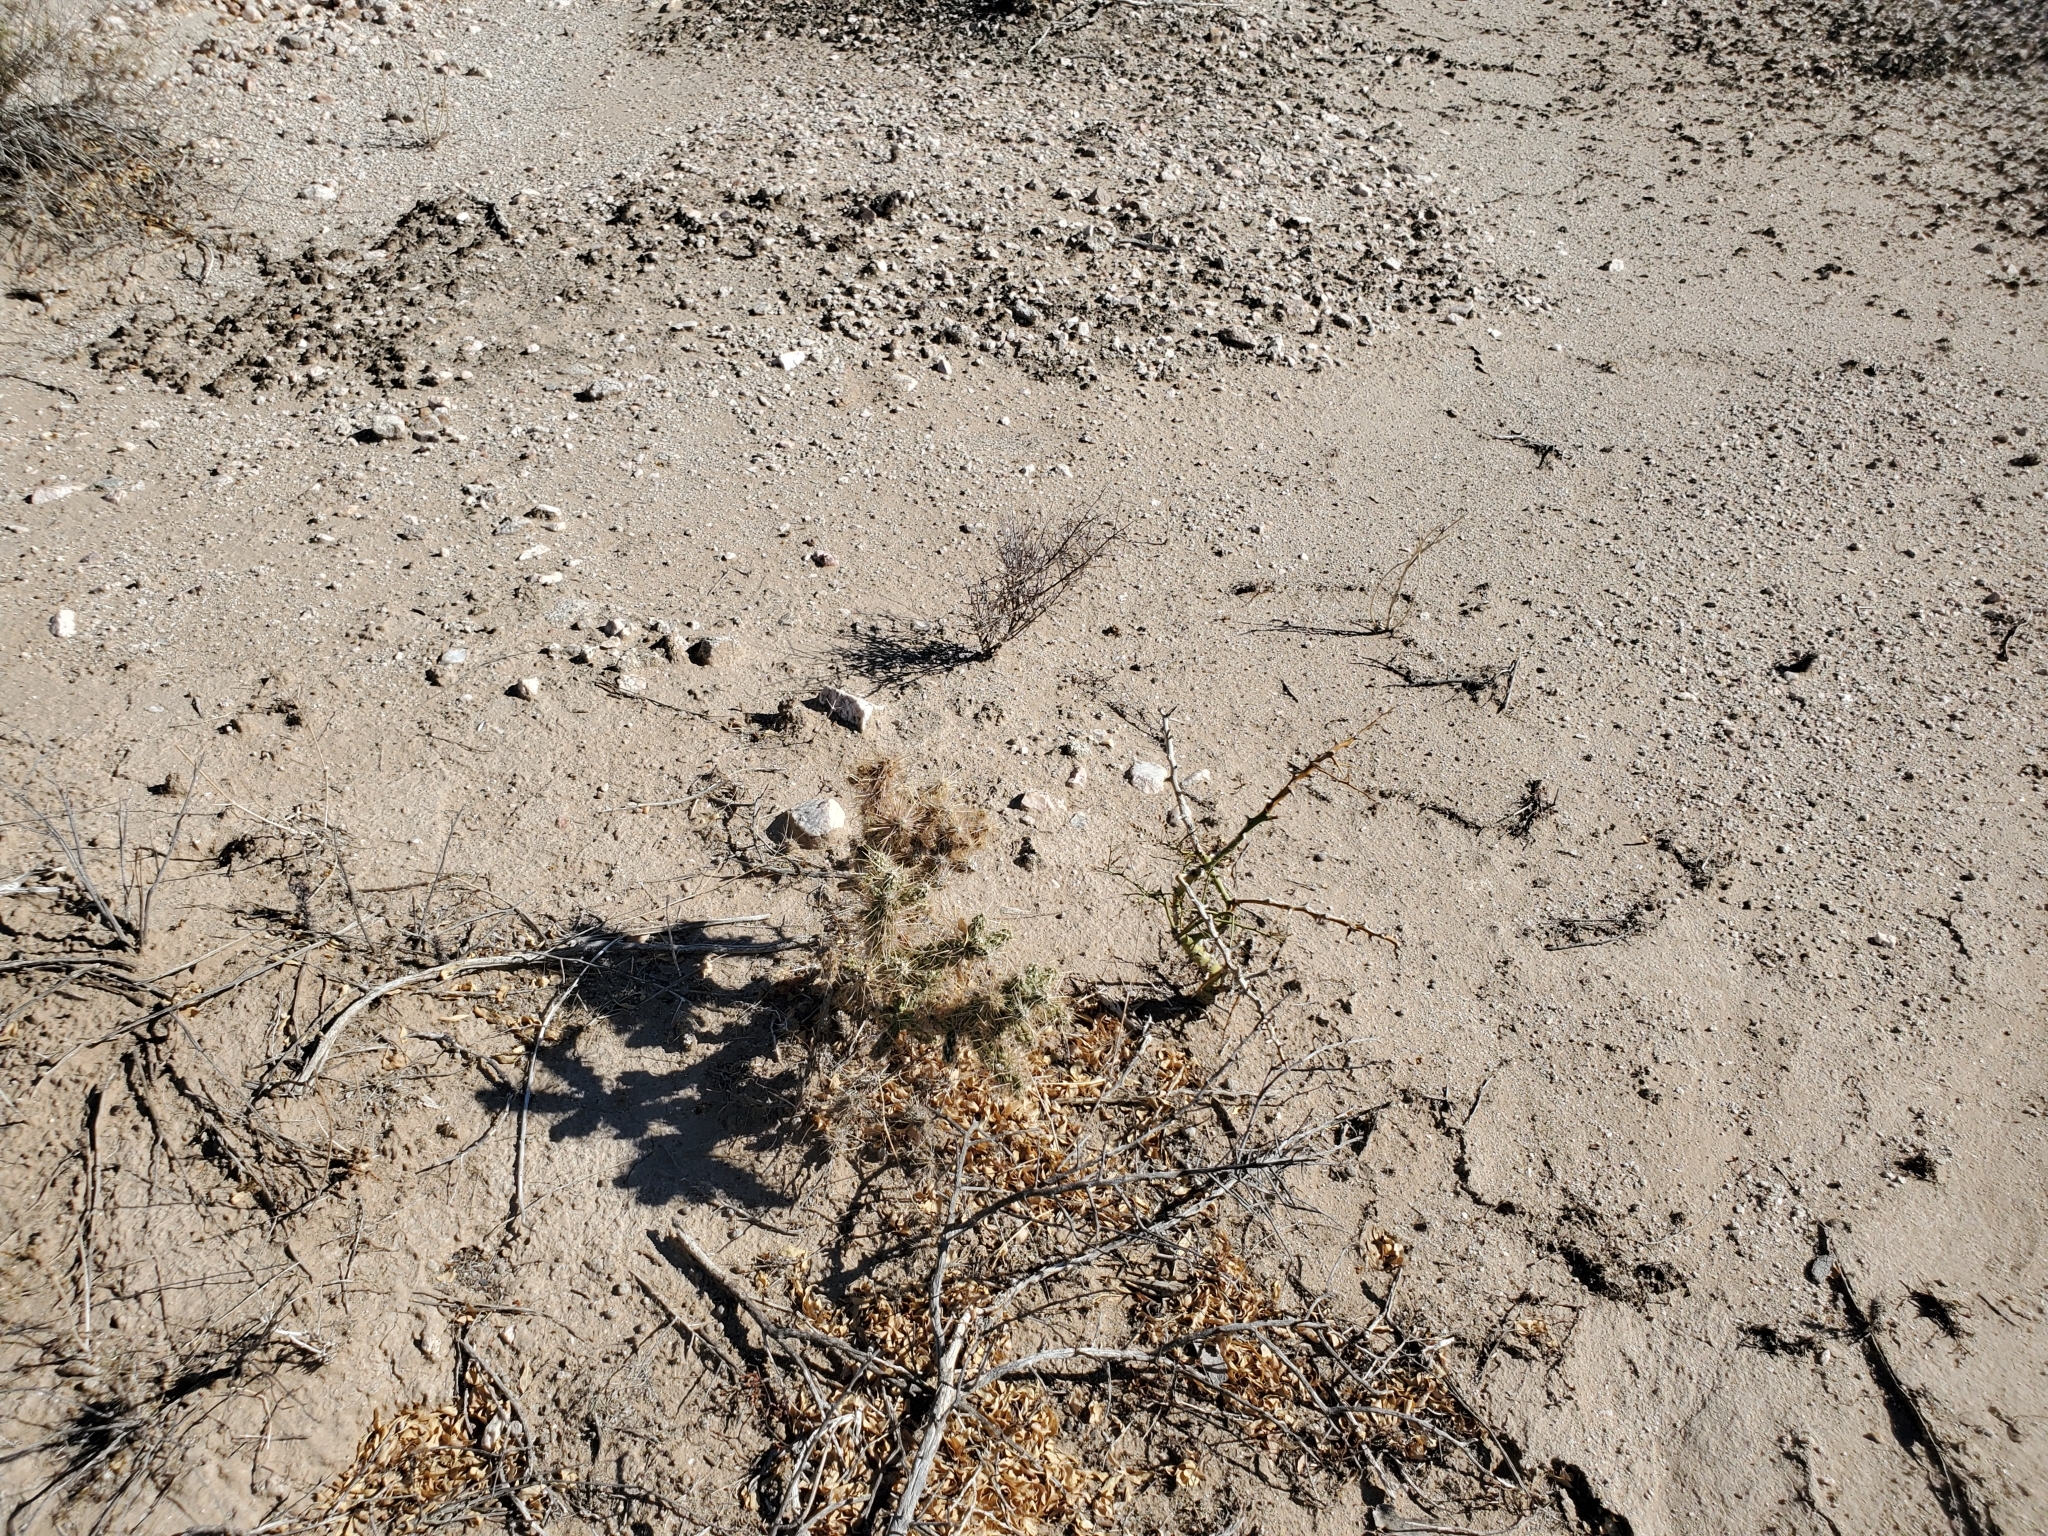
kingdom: Plantae
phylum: Tracheophyta
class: Magnoliopsida
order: Caryophyllales
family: Cactaceae
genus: Cylindropuntia
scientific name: Cylindropuntia echinocarpa
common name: Ground cholla
